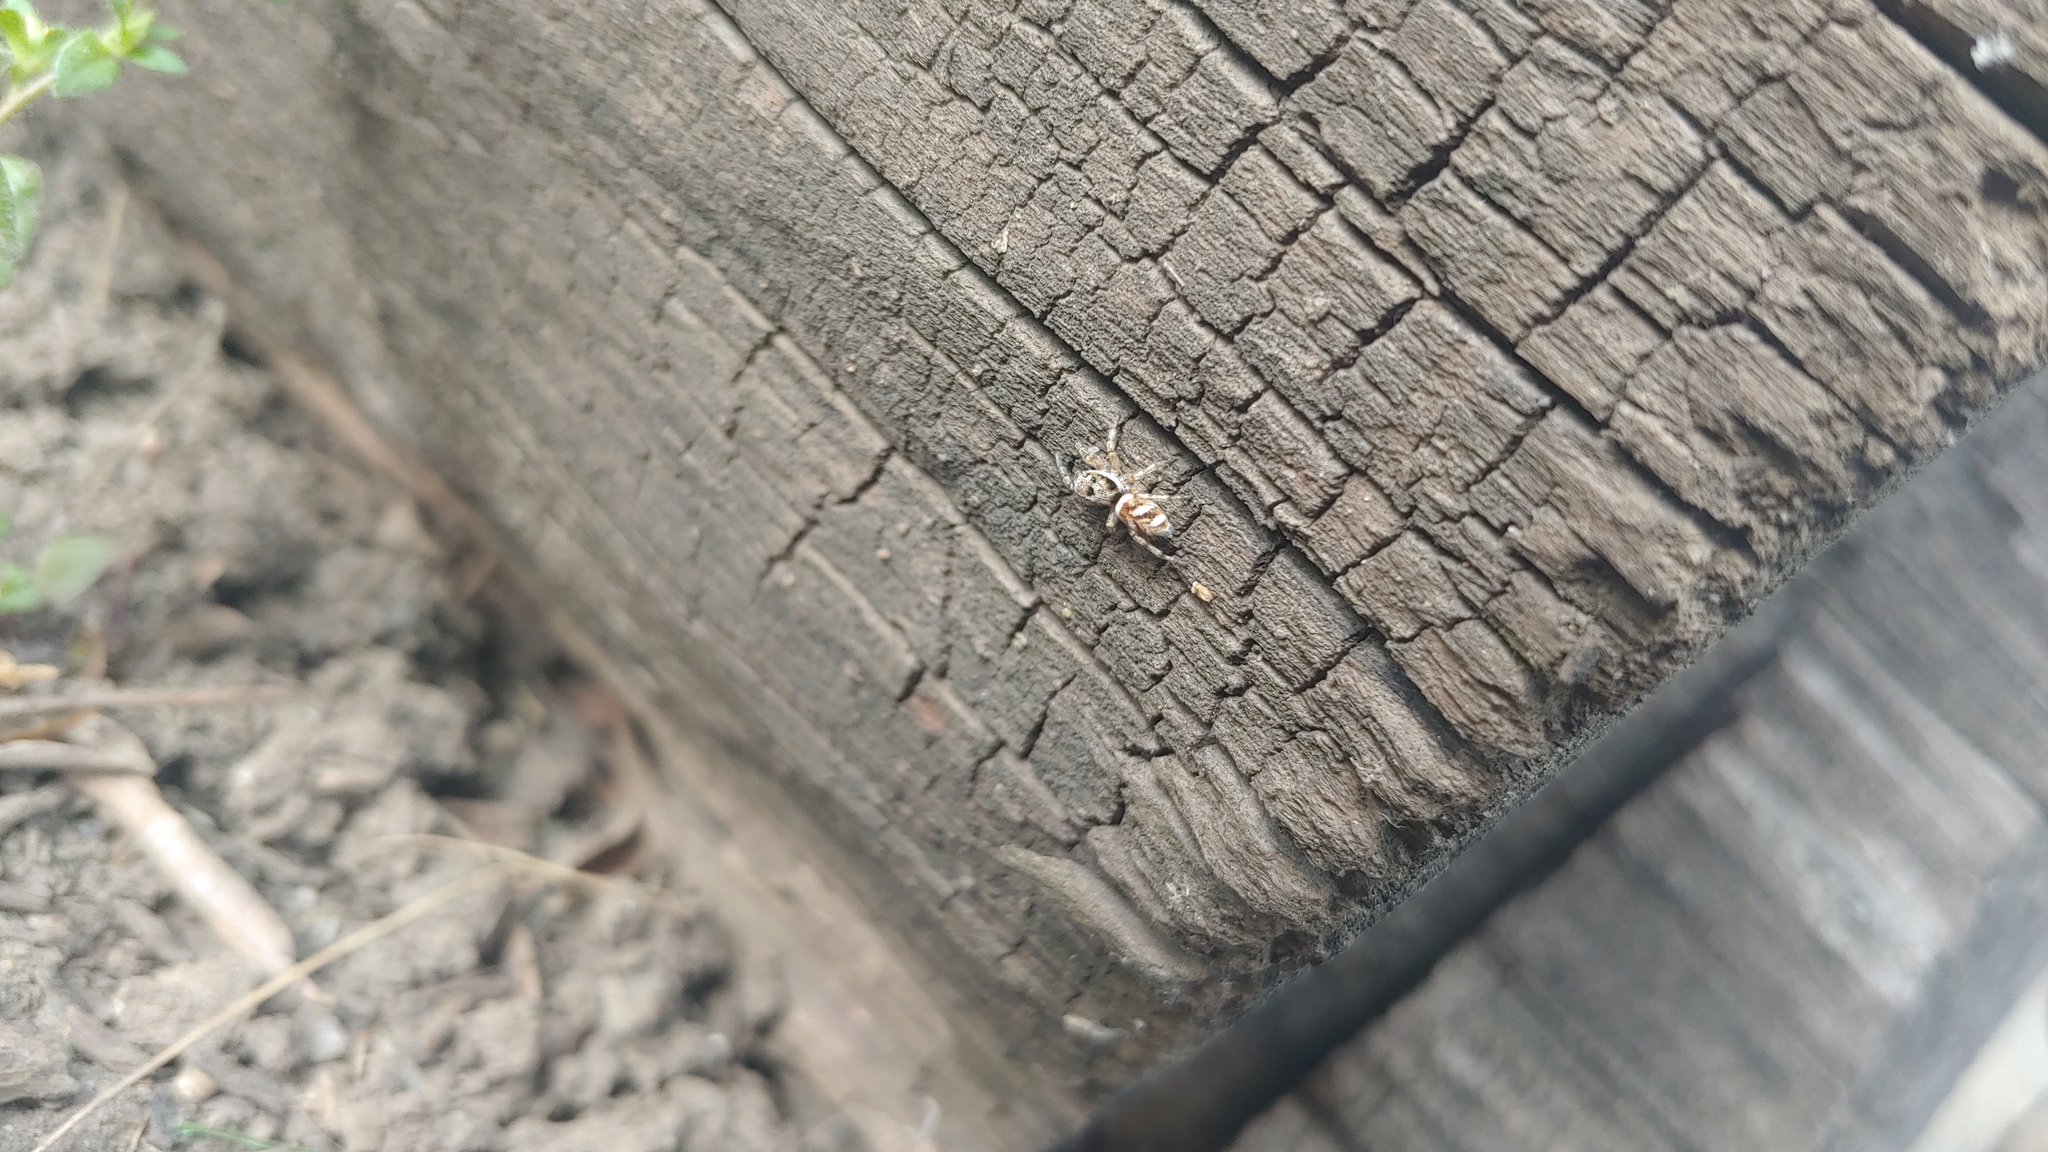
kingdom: Animalia
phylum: Arthropoda
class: Arachnida
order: Araneae
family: Salticidae
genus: Salticus
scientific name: Salticus scenicus
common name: Zebra jumper
